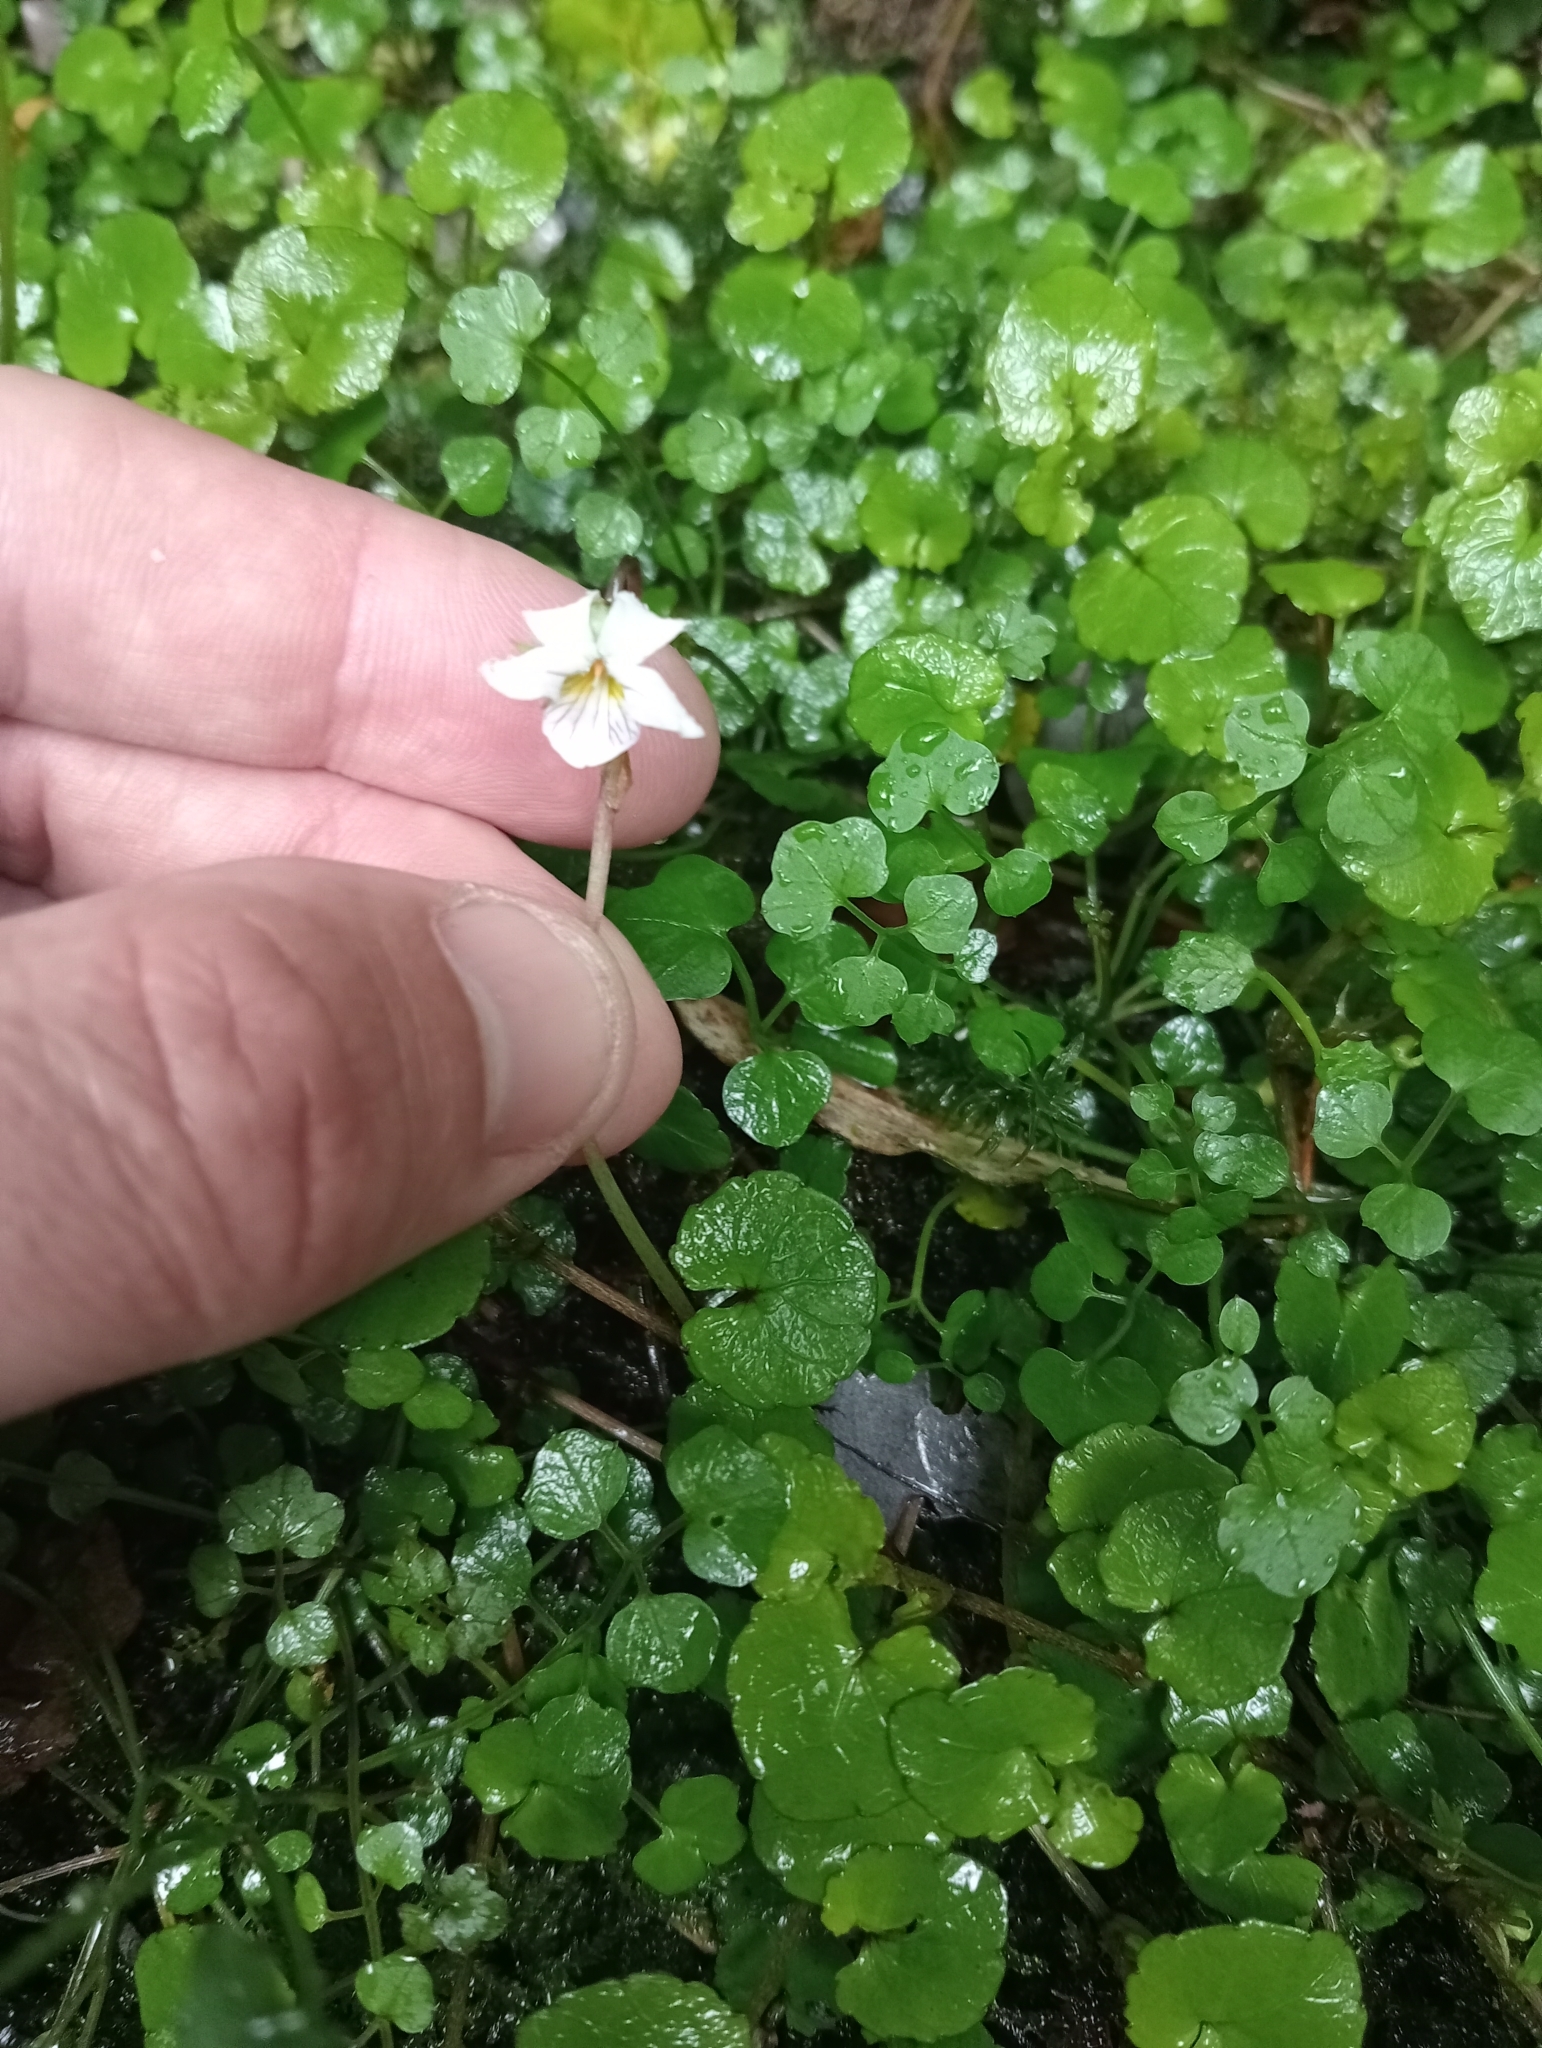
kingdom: Plantae
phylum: Tracheophyta
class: Magnoliopsida
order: Malpighiales
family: Violaceae
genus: Viola
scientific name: Viola filicaulis
